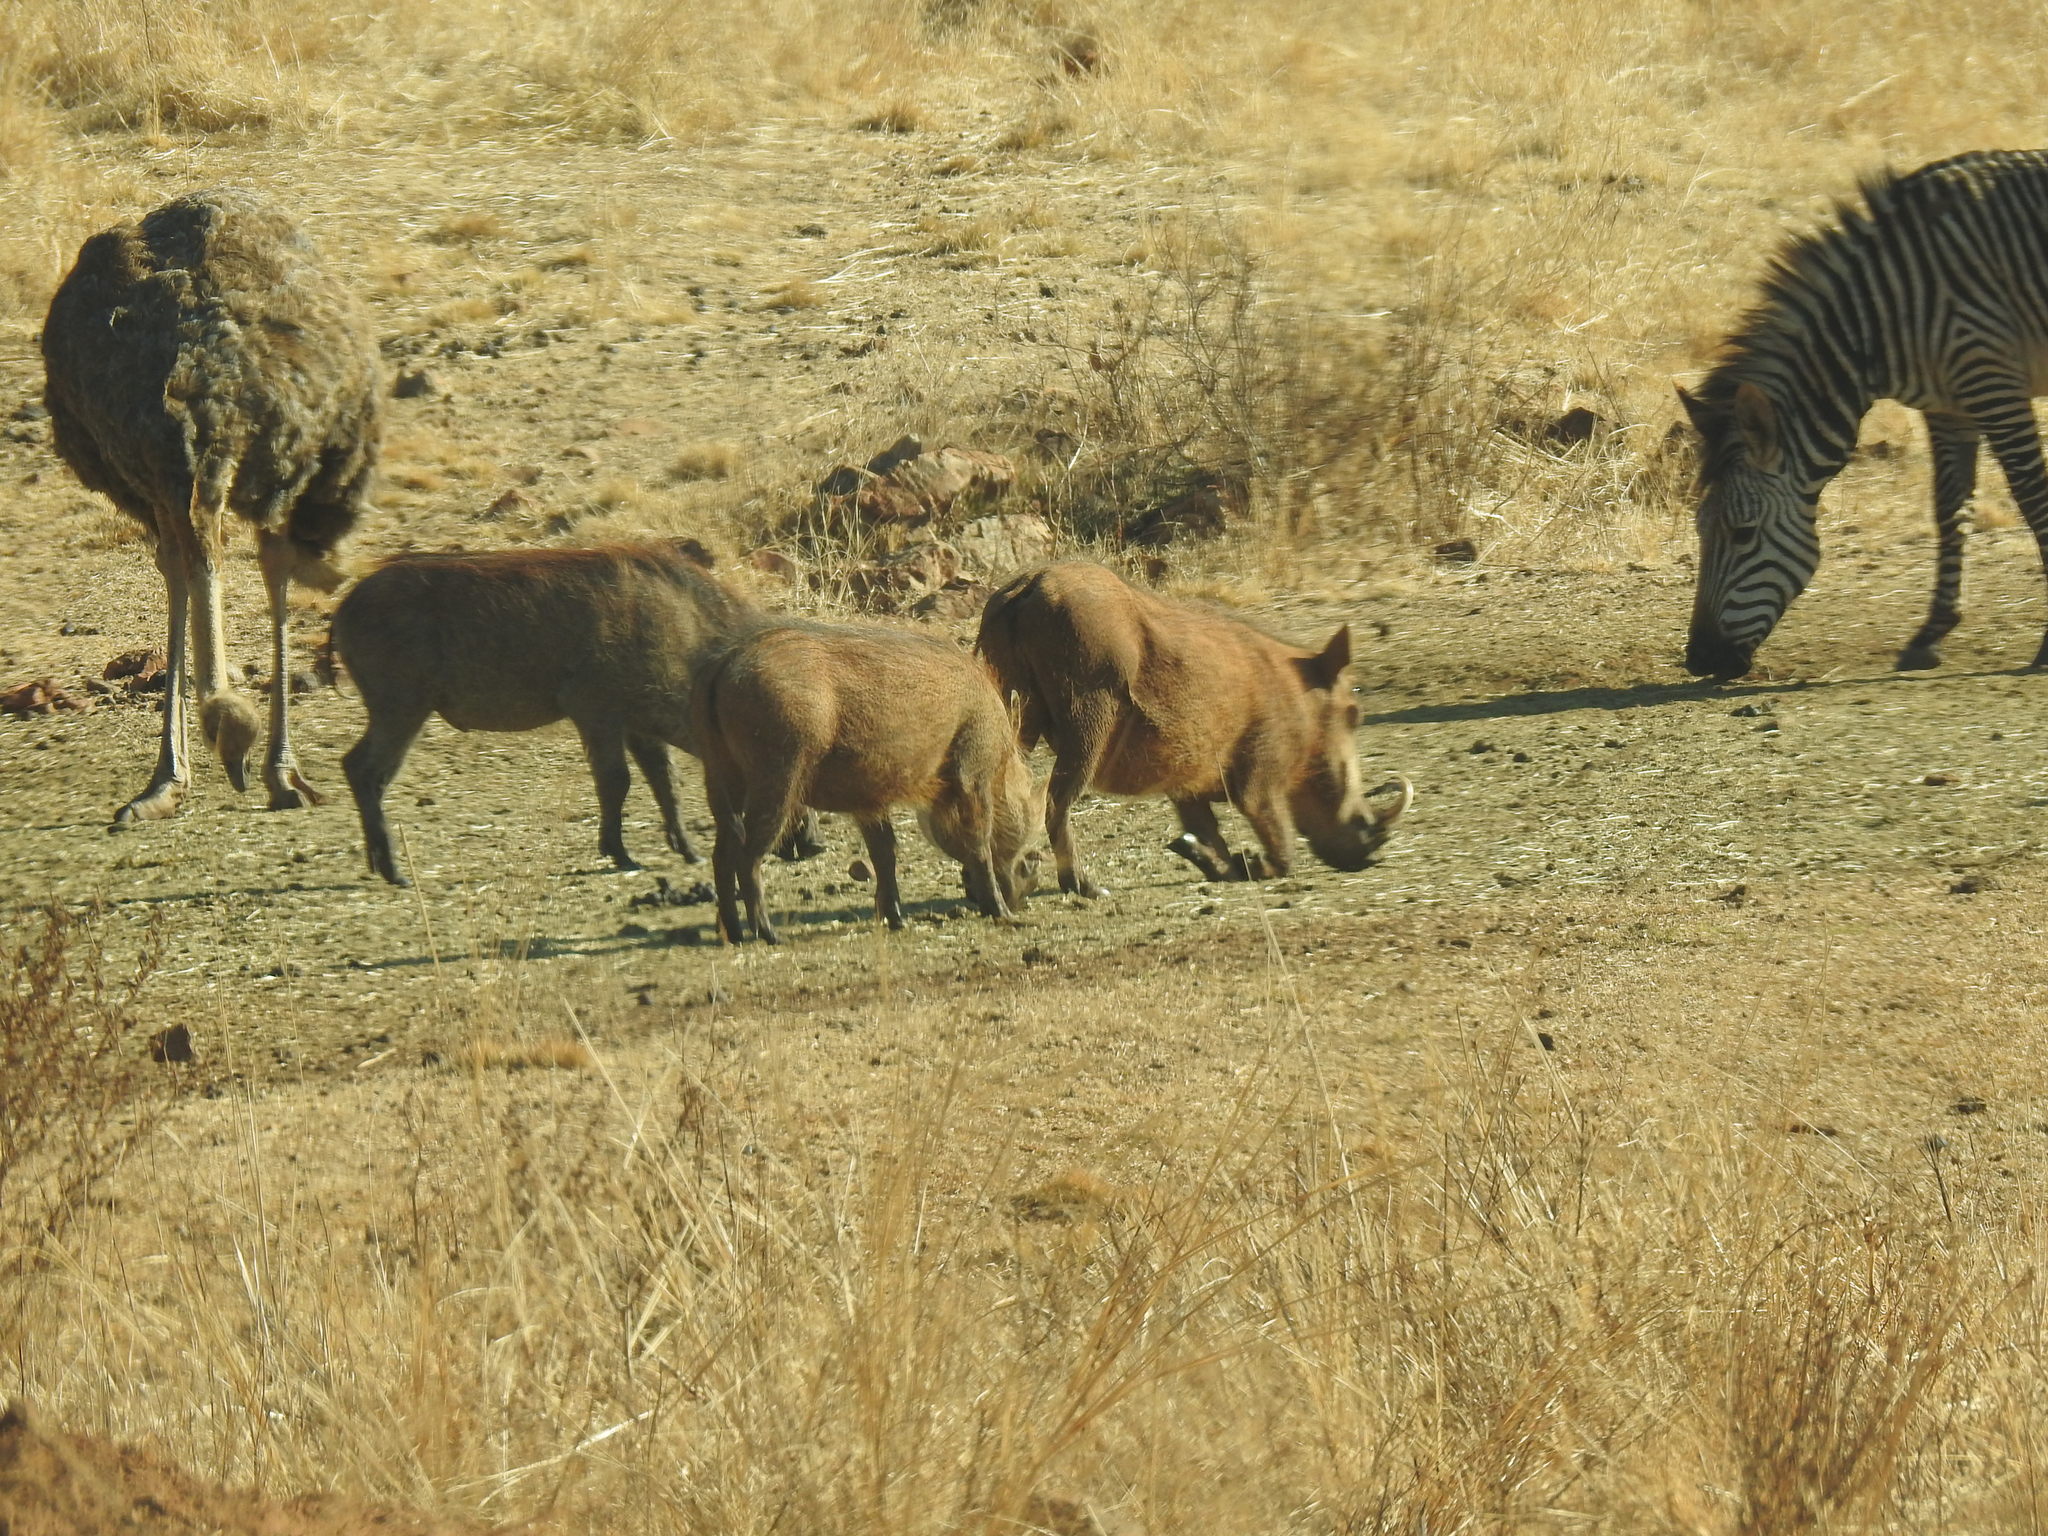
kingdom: Animalia
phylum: Chordata
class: Mammalia
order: Artiodactyla
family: Suidae
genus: Phacochoerus
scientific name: Phacochoerus africanus
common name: Common warthog
